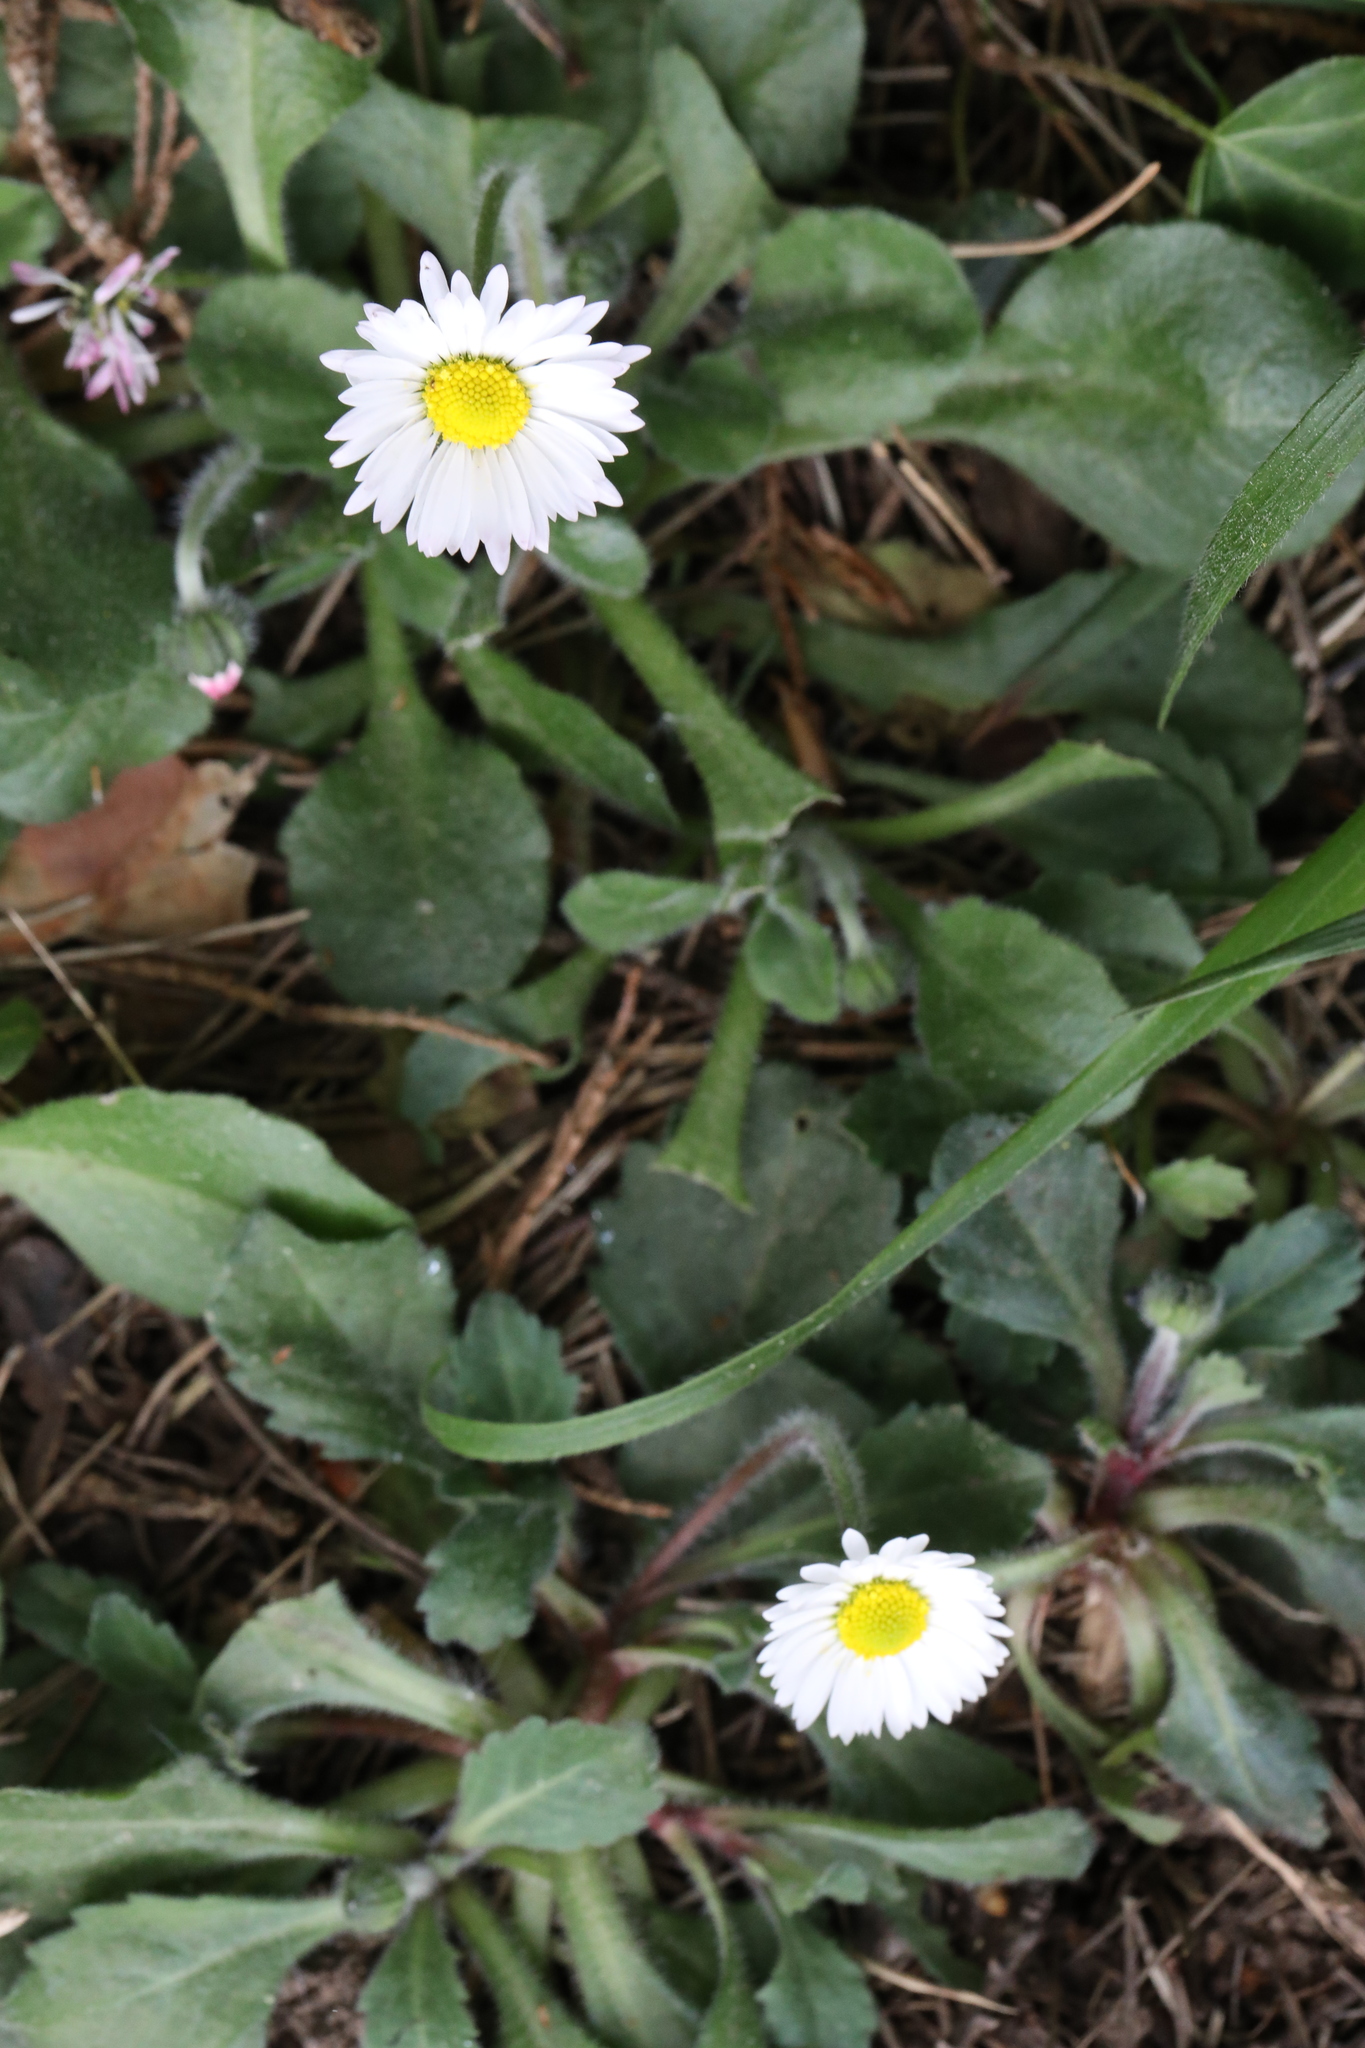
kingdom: Plantae
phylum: Tracheophyta
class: Magnoliopsida
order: Asterales
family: Asteraceae
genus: Bellis
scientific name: Bellis perennis
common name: Lawndaisy
